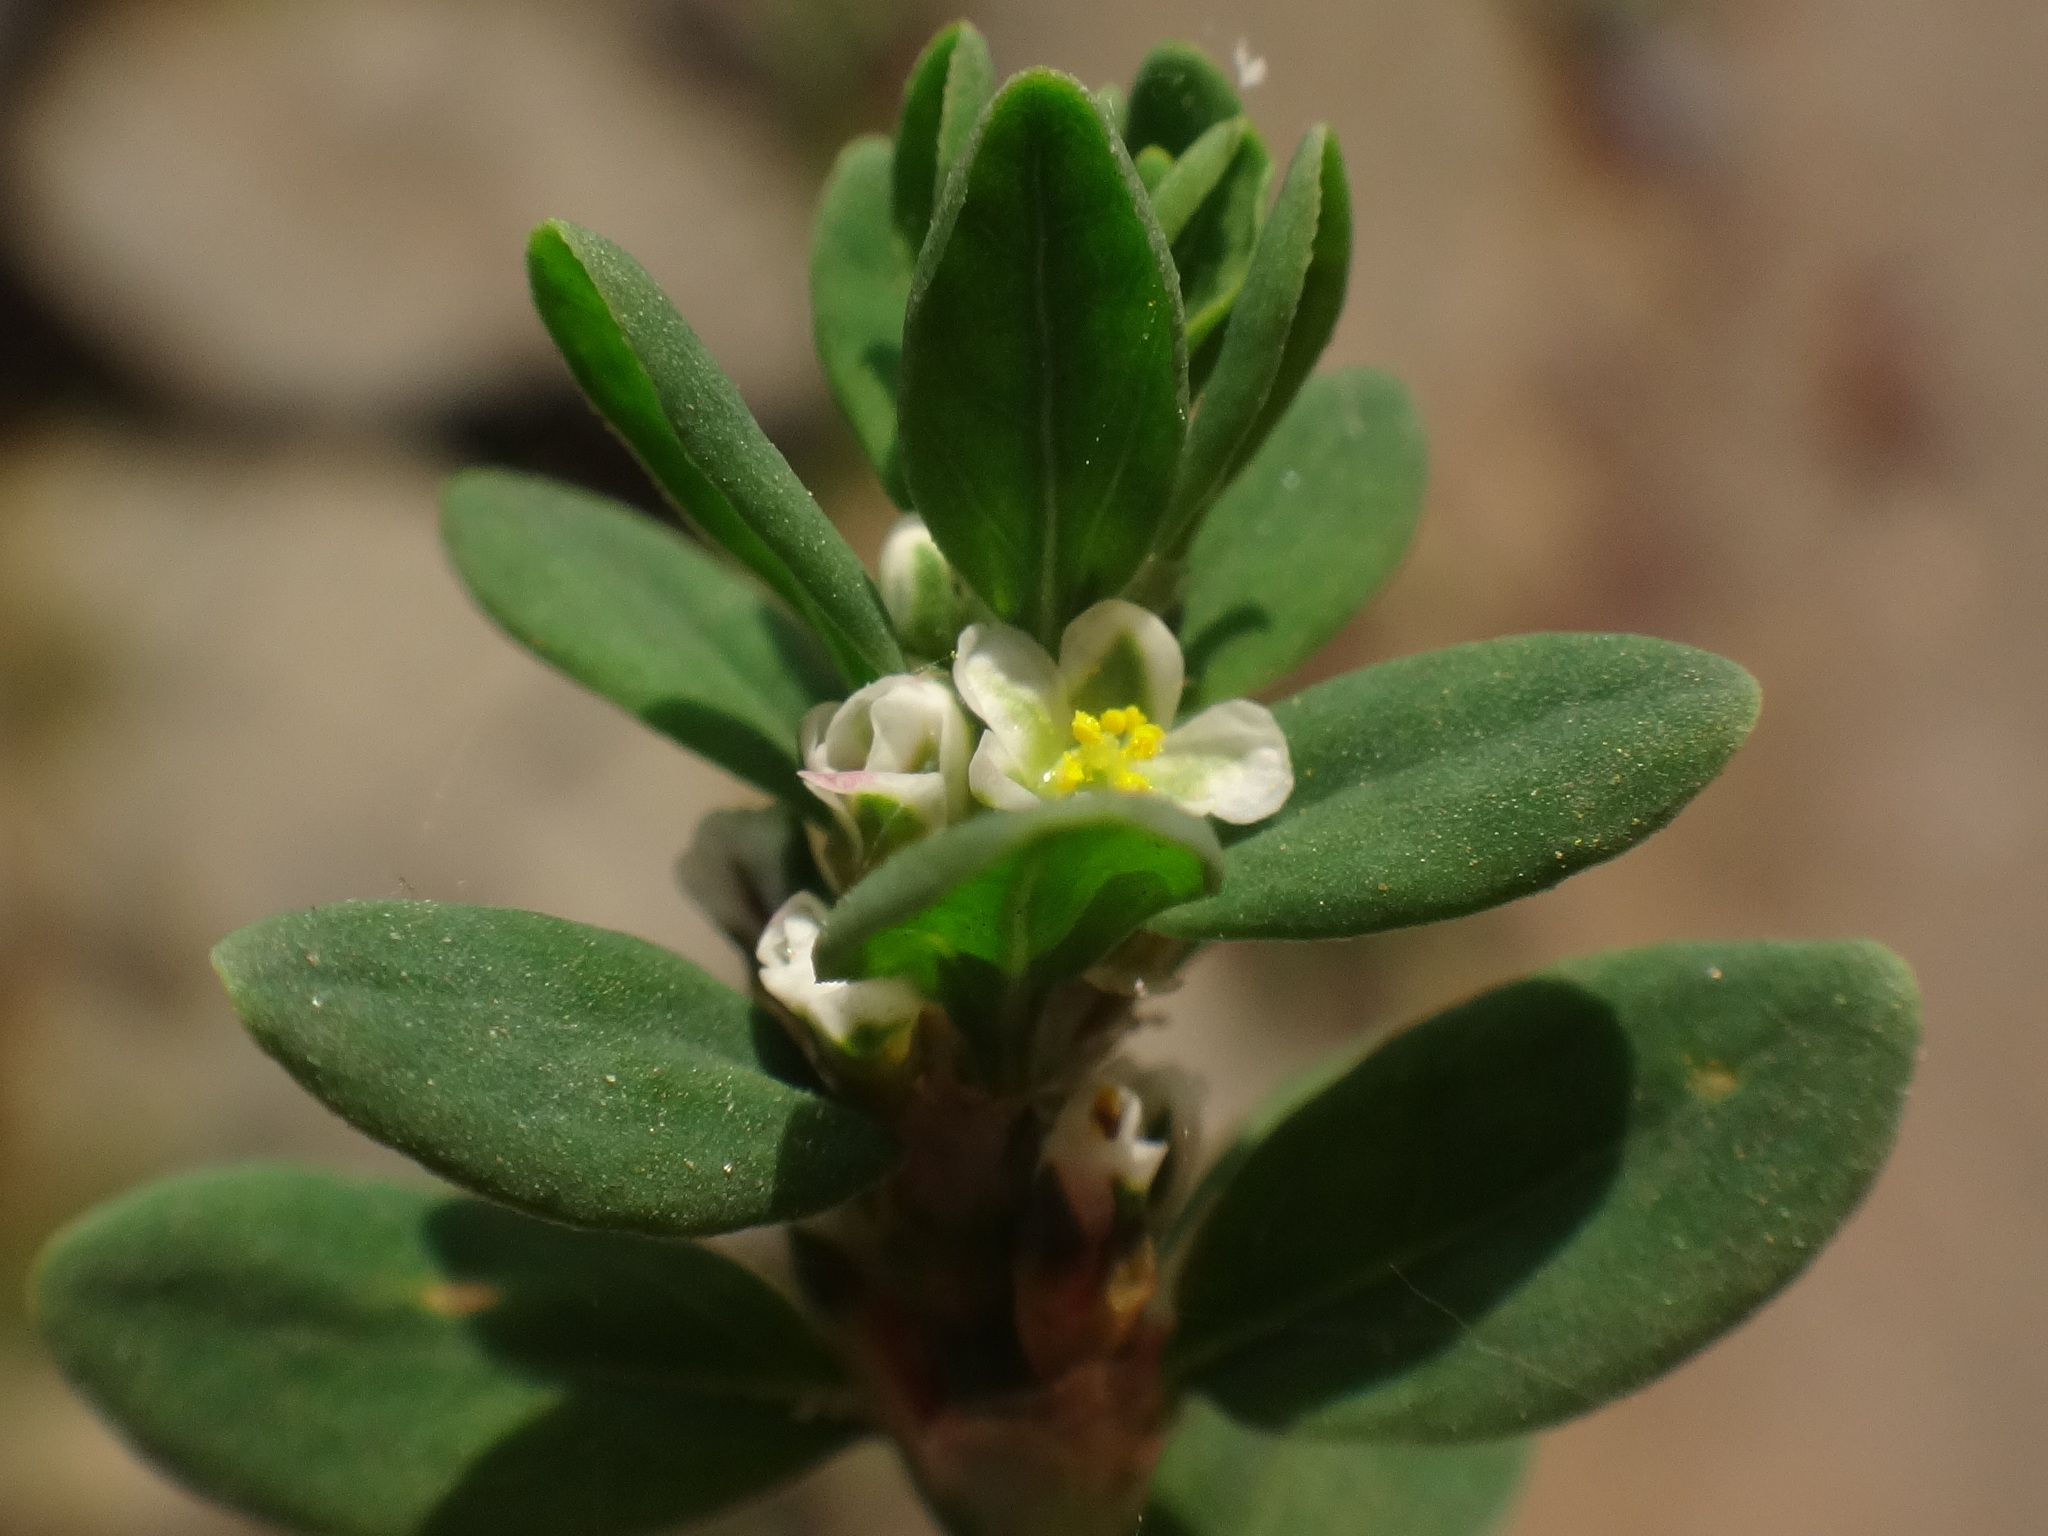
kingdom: Plantae
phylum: Tracheophyta
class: Magnoliopsida
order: Caryophyllales
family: Polygonaceae
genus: Polygonum
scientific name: Polygonum aviculare
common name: Prostrate knotweed
